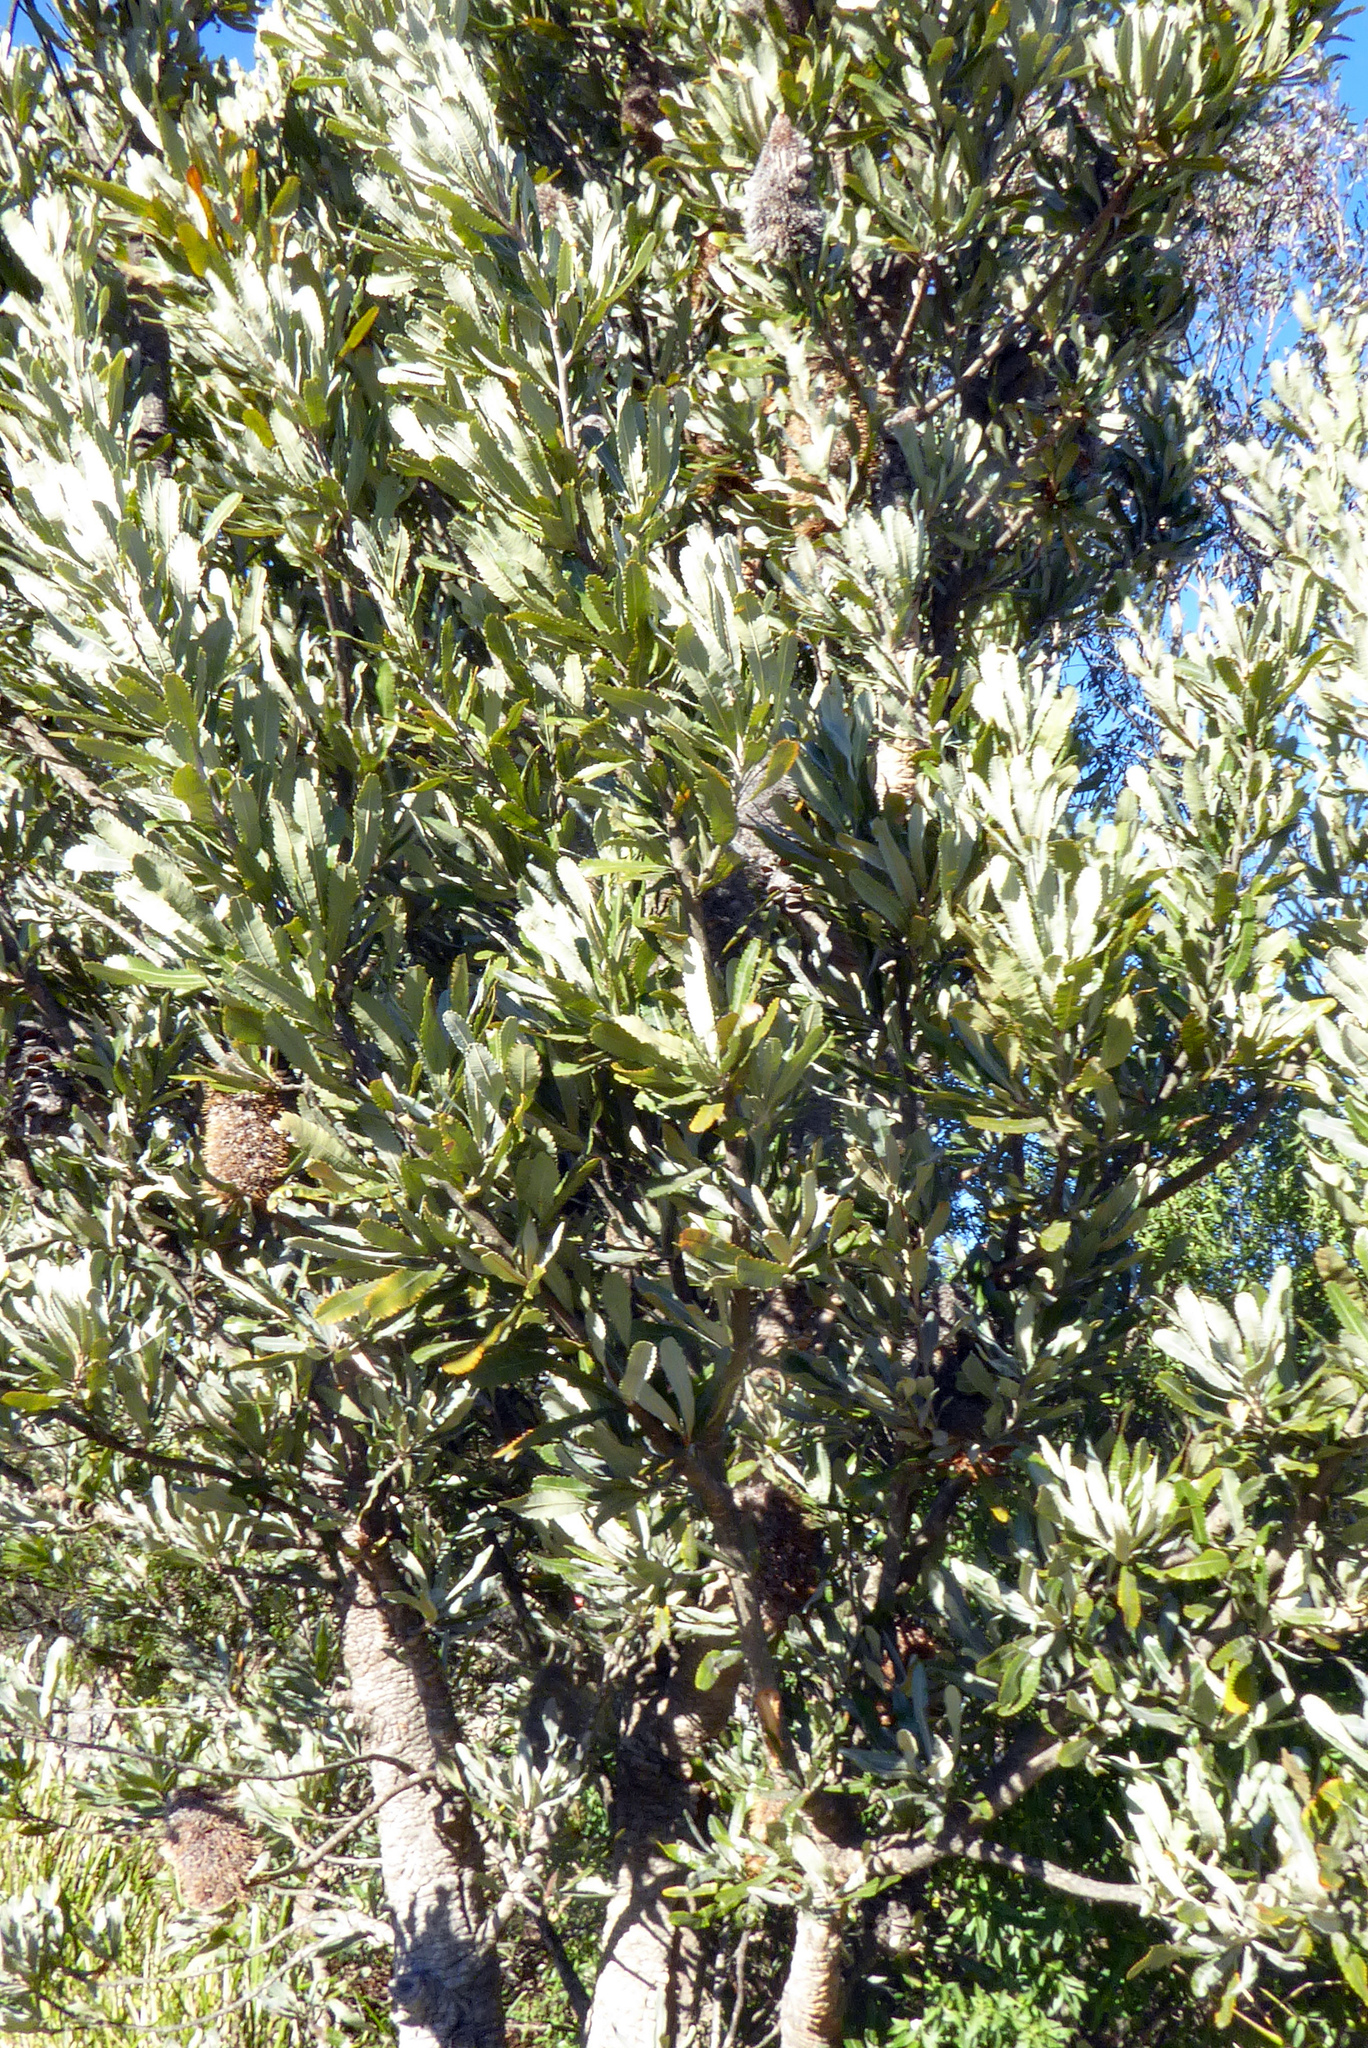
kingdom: Plantae
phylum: Tracheophyta
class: Magnoliopsida
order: Proteales
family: Proteaceae
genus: Banksia
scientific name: Banksia serrata
